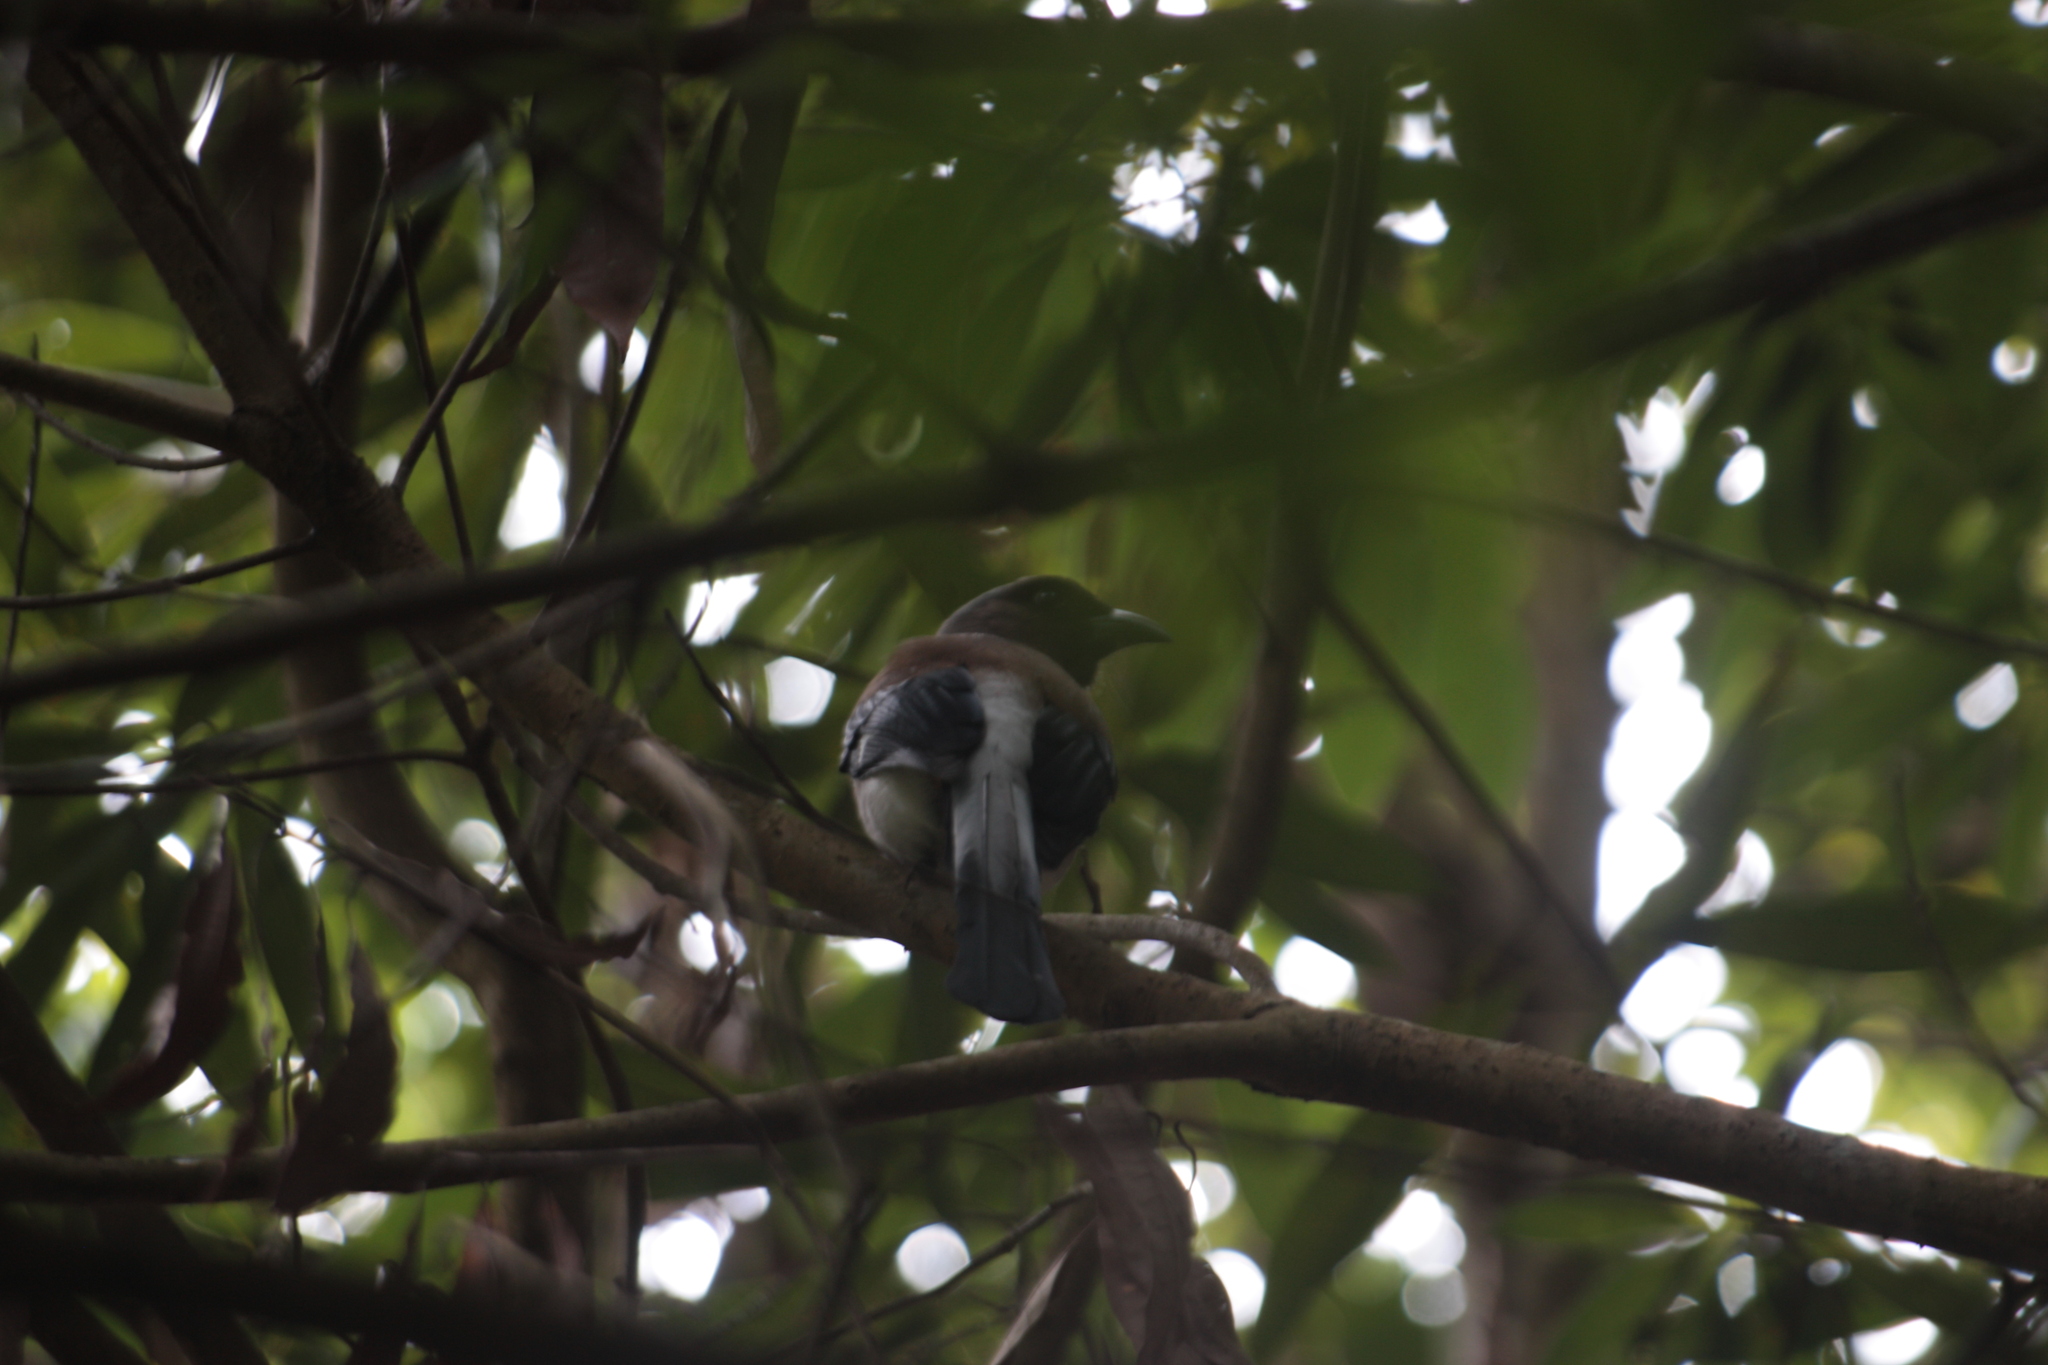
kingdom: Animalia
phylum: Chordata
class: Aves
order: Passeriformes
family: Corvidae
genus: Dendrocitta
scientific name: Dendrocitta formosae
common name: Grey treepie
